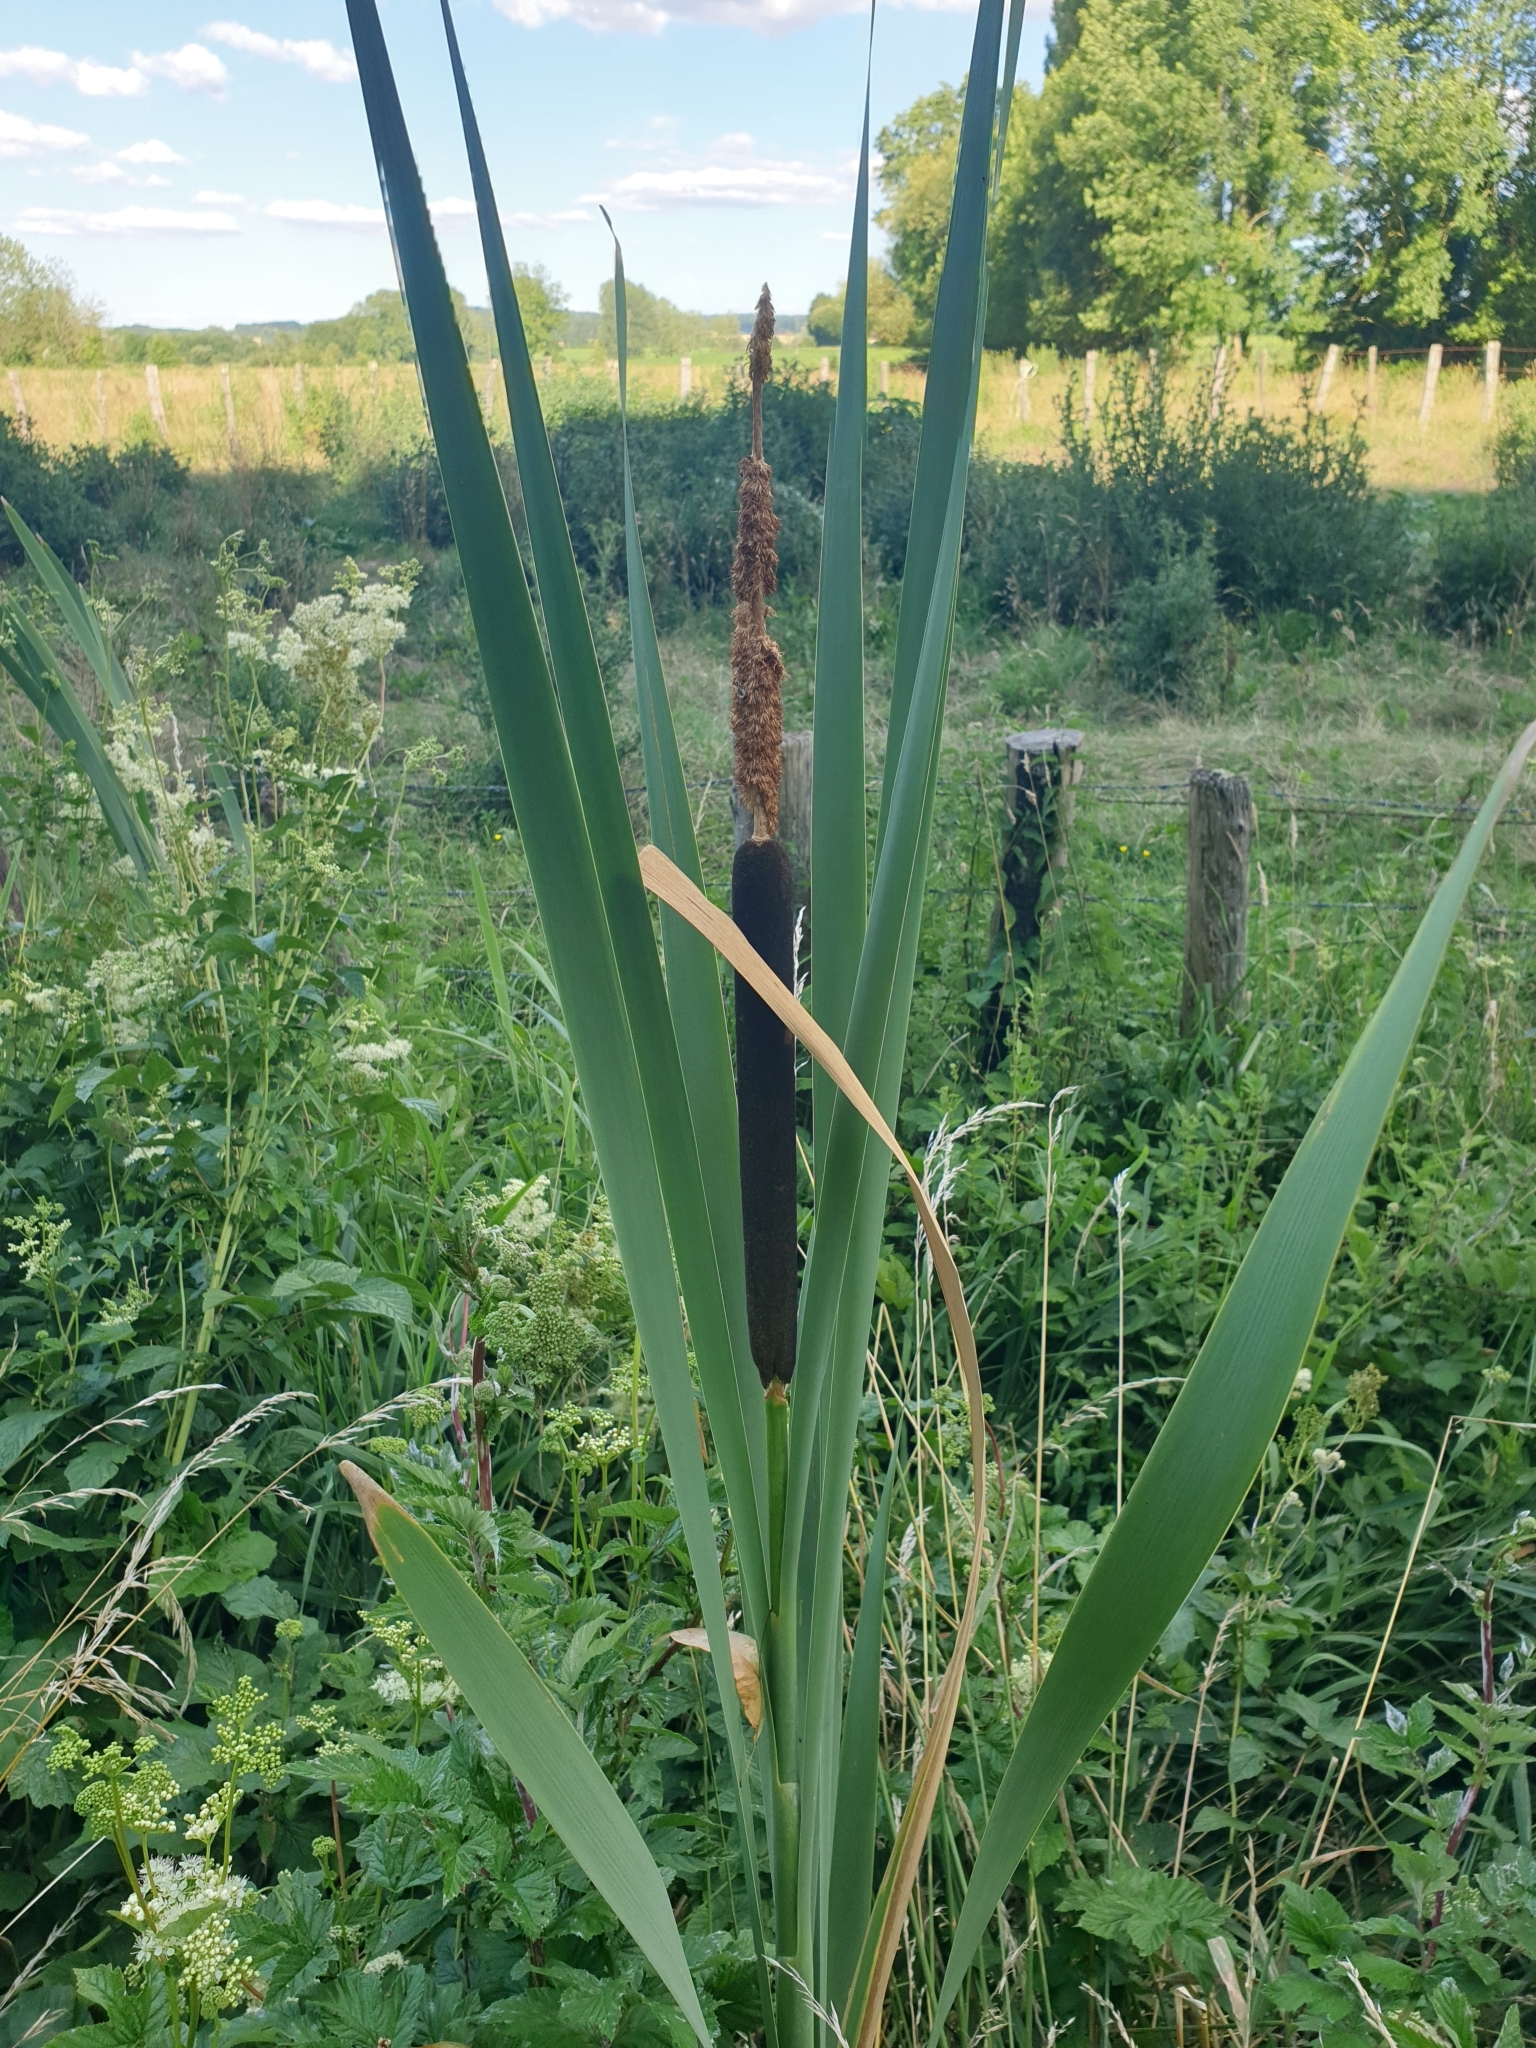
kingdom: Plantae
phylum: Tracheophyta
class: Liliopsida
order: Poales
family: Typhaceae
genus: Typha
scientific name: Typha latifolia
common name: Broadleaf cattail
